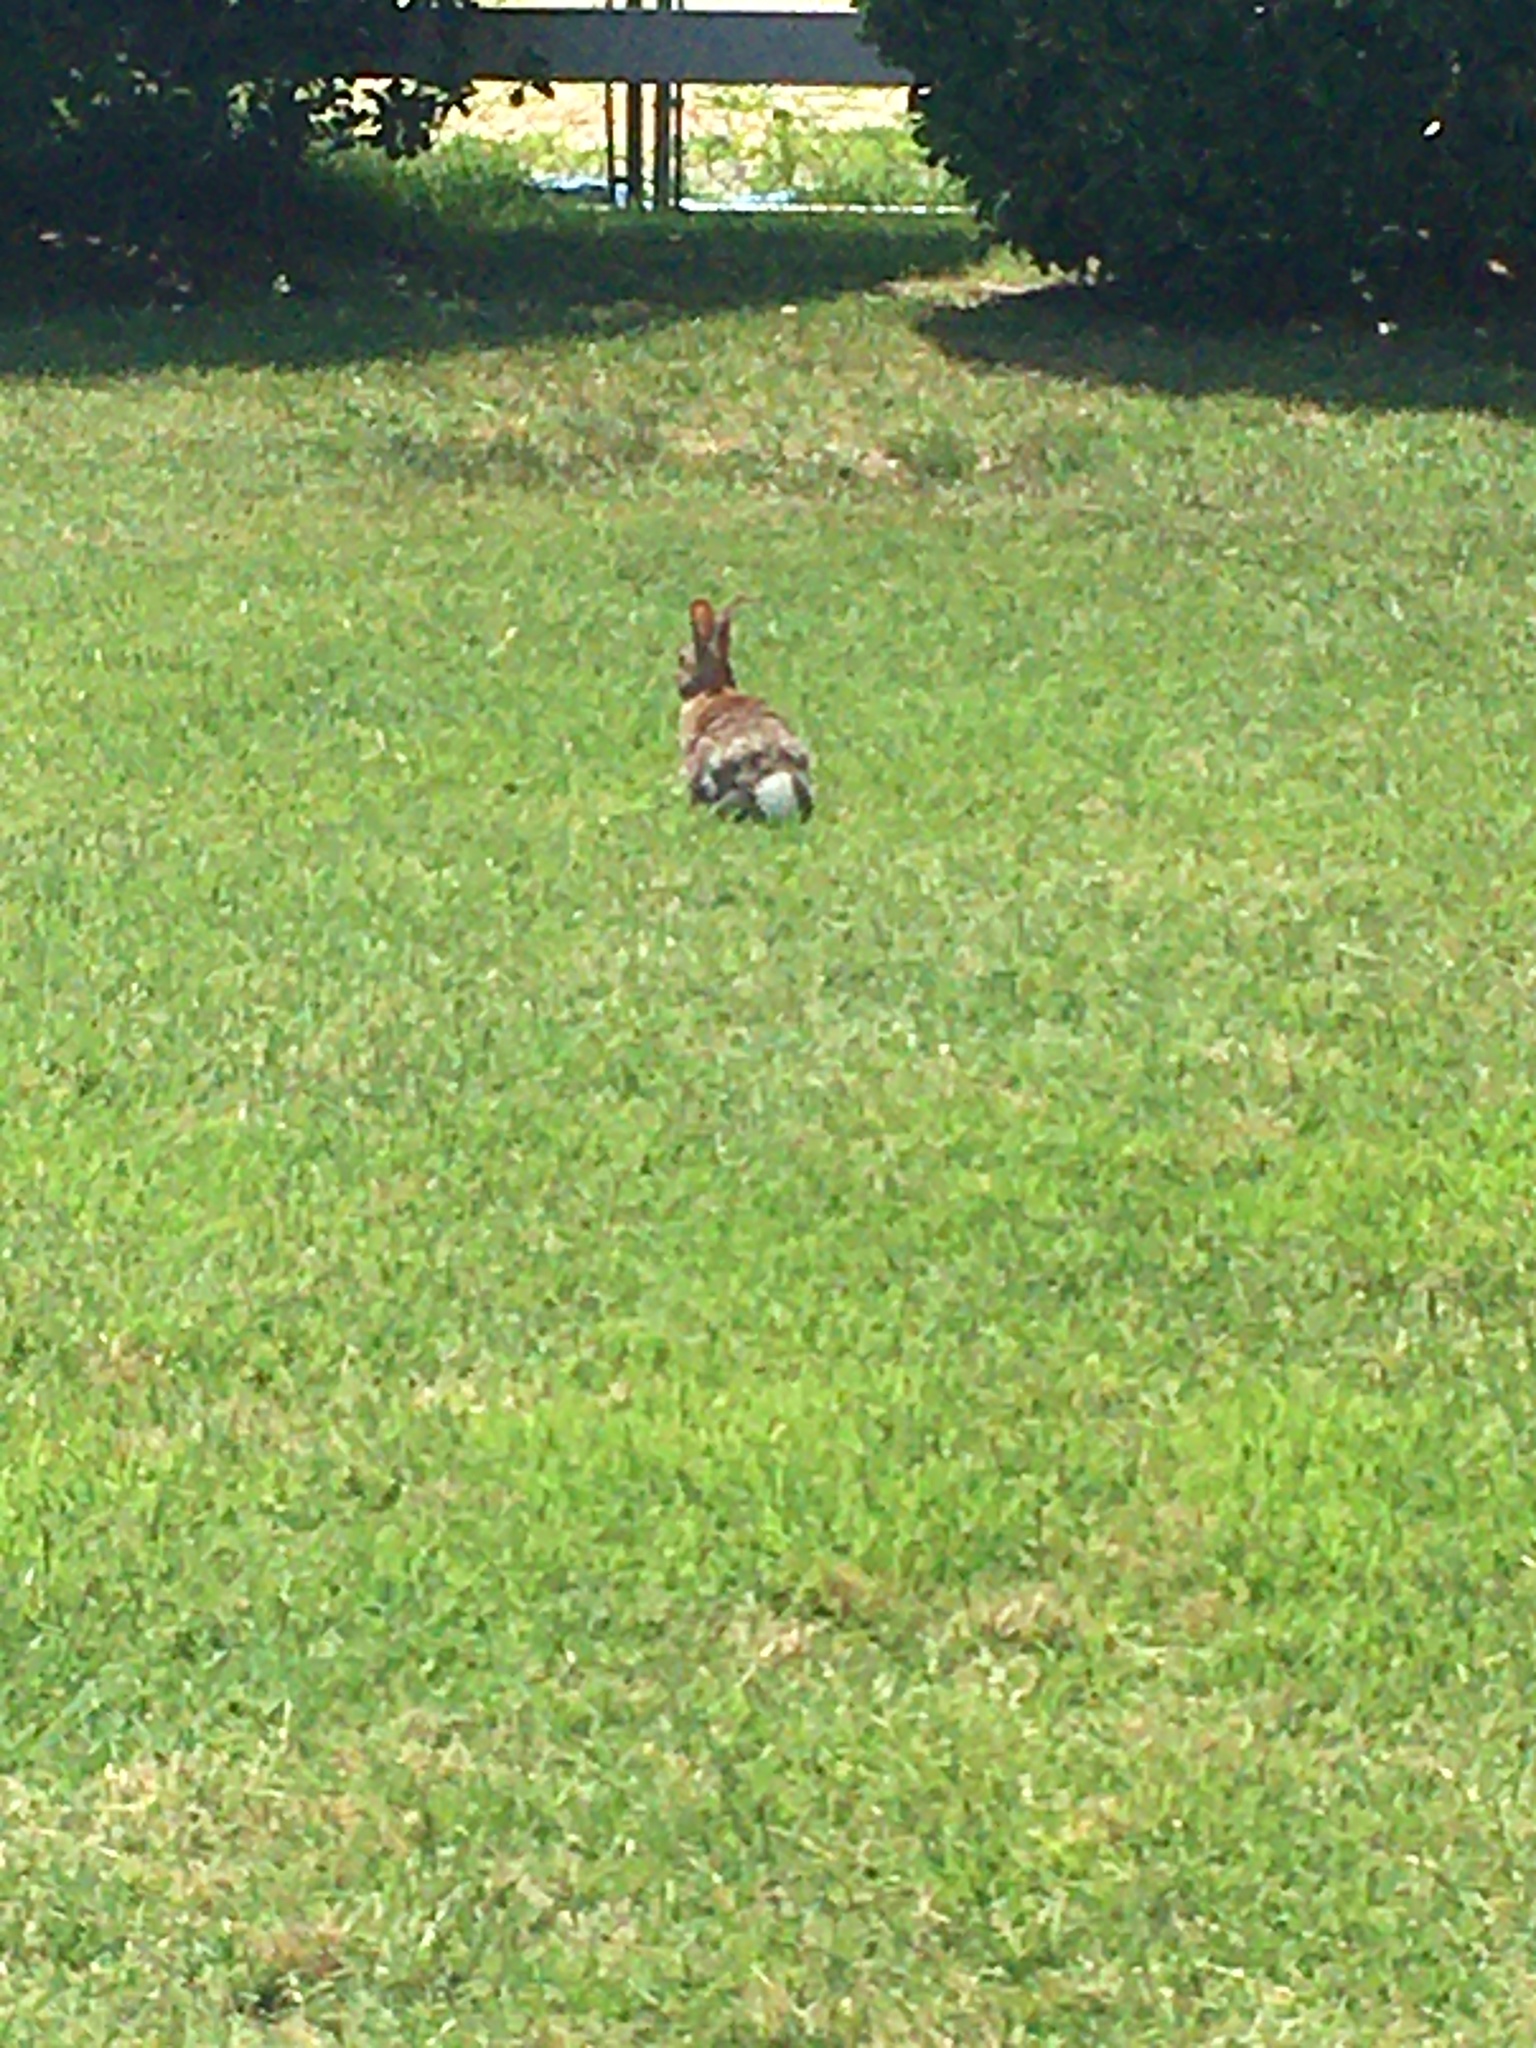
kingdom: Animalia
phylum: Chordata
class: Mammalia
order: Lagomorpha
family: Leporidae
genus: Sylvilagus
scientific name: Sylvilagus floridanus
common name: Eastern cottontail
